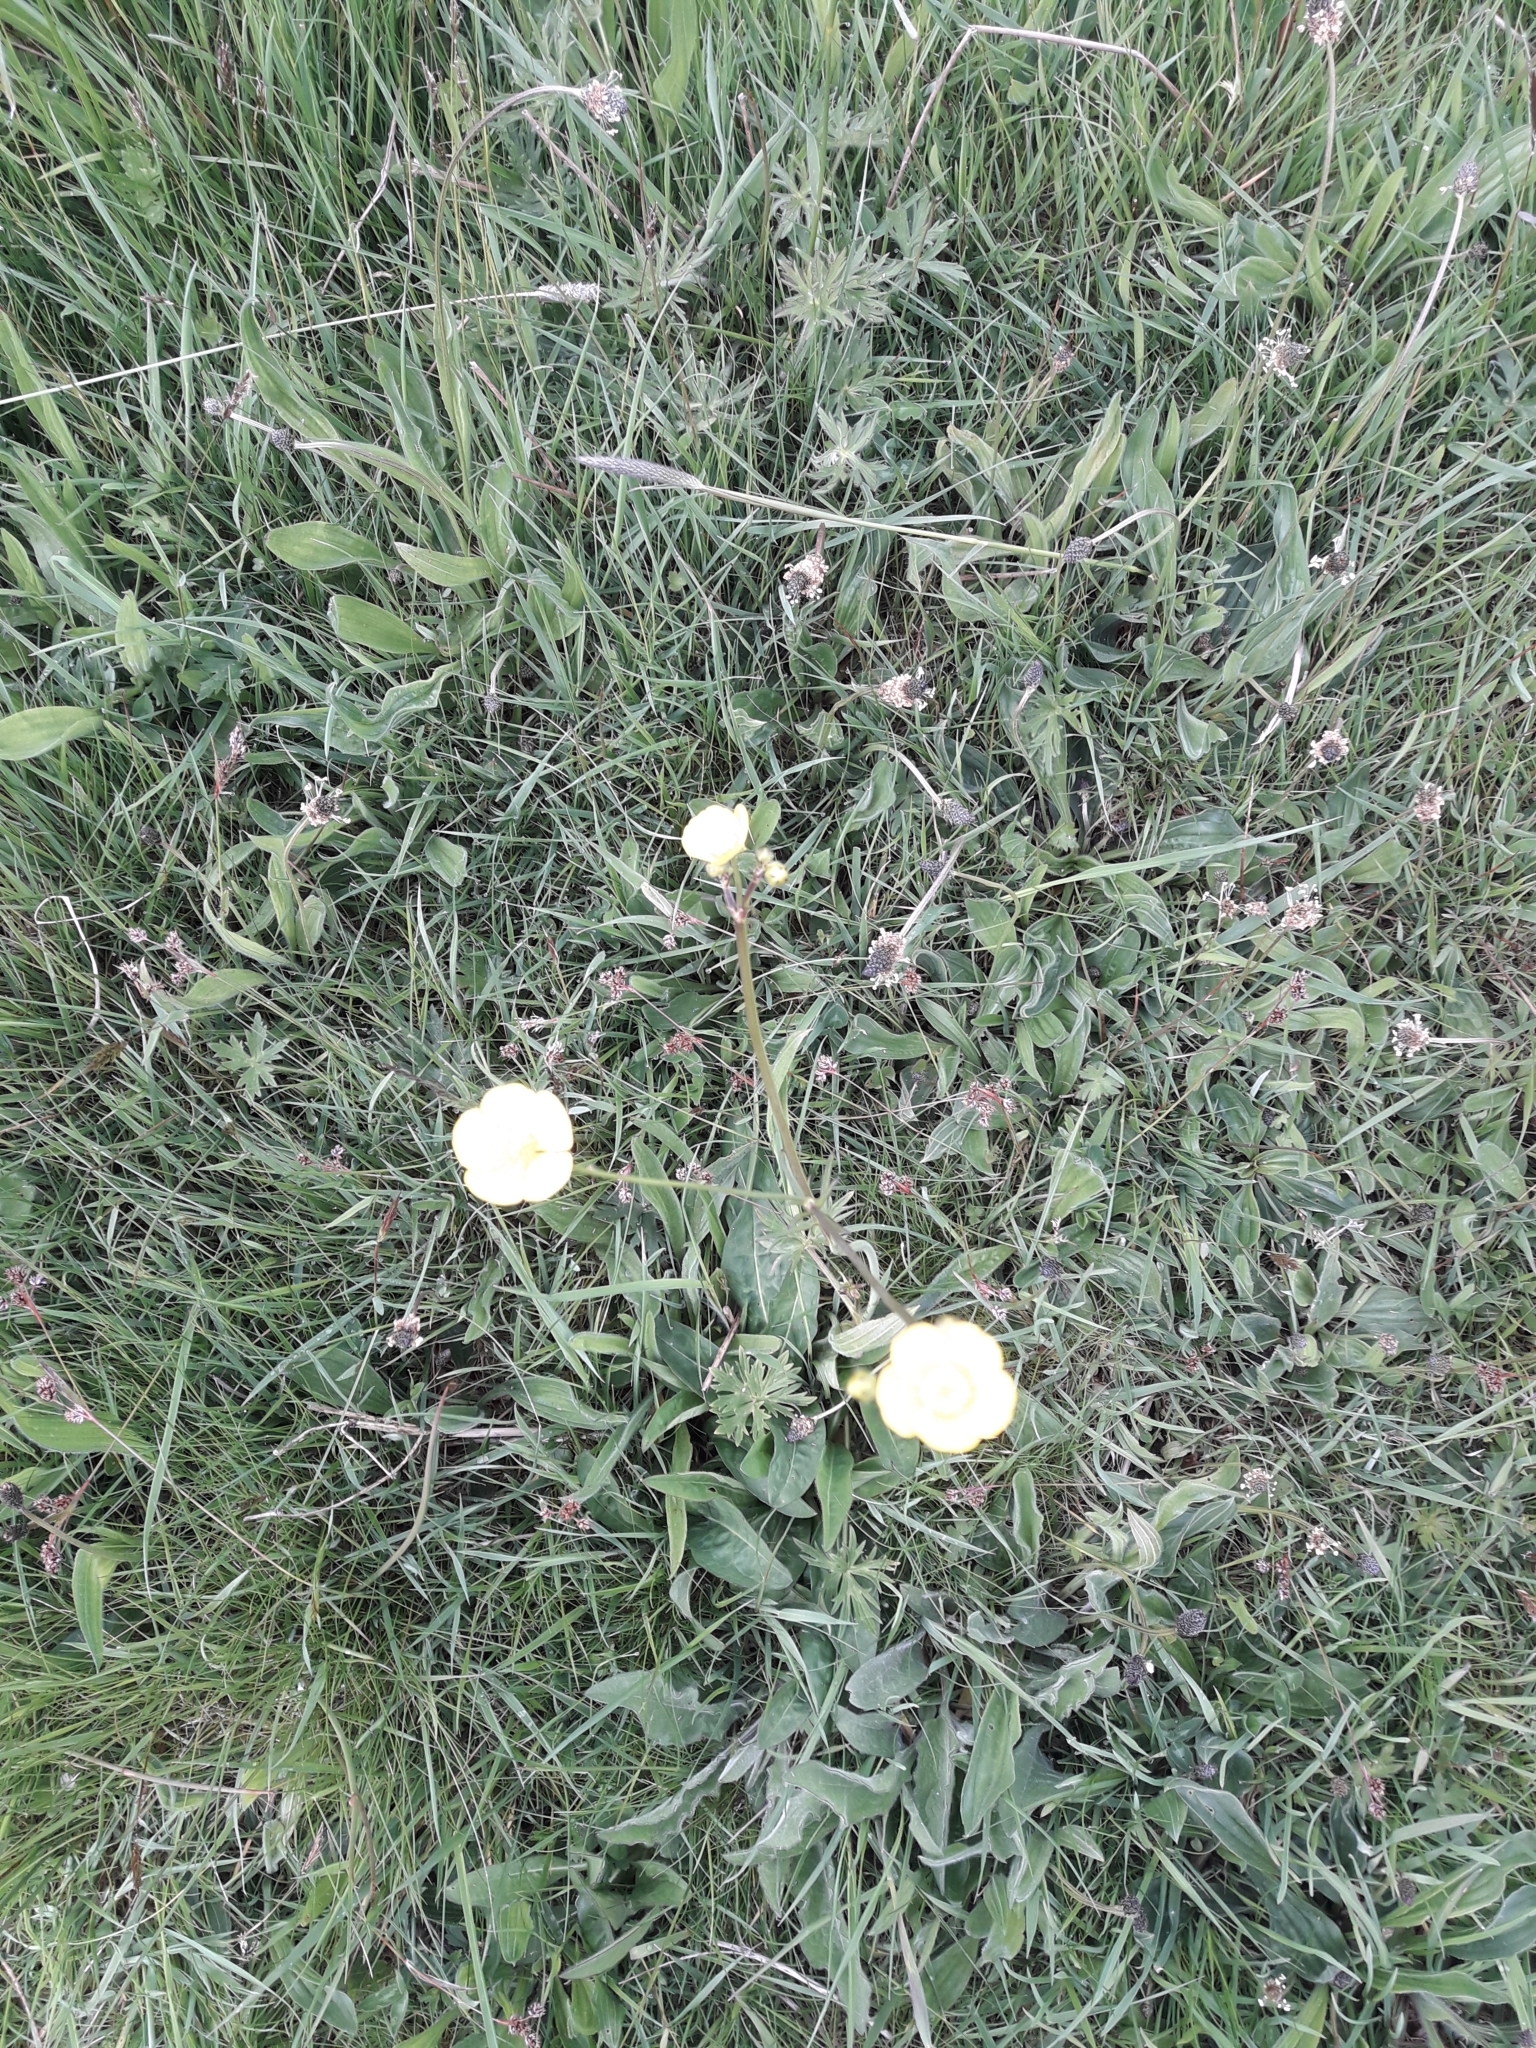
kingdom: Plantae
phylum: Tracheophyta
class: Magnoliopsida
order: Ranunculales
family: Ranunculaceae
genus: Ranunculus
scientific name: Ranunculus acris
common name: Meadow buttercup
